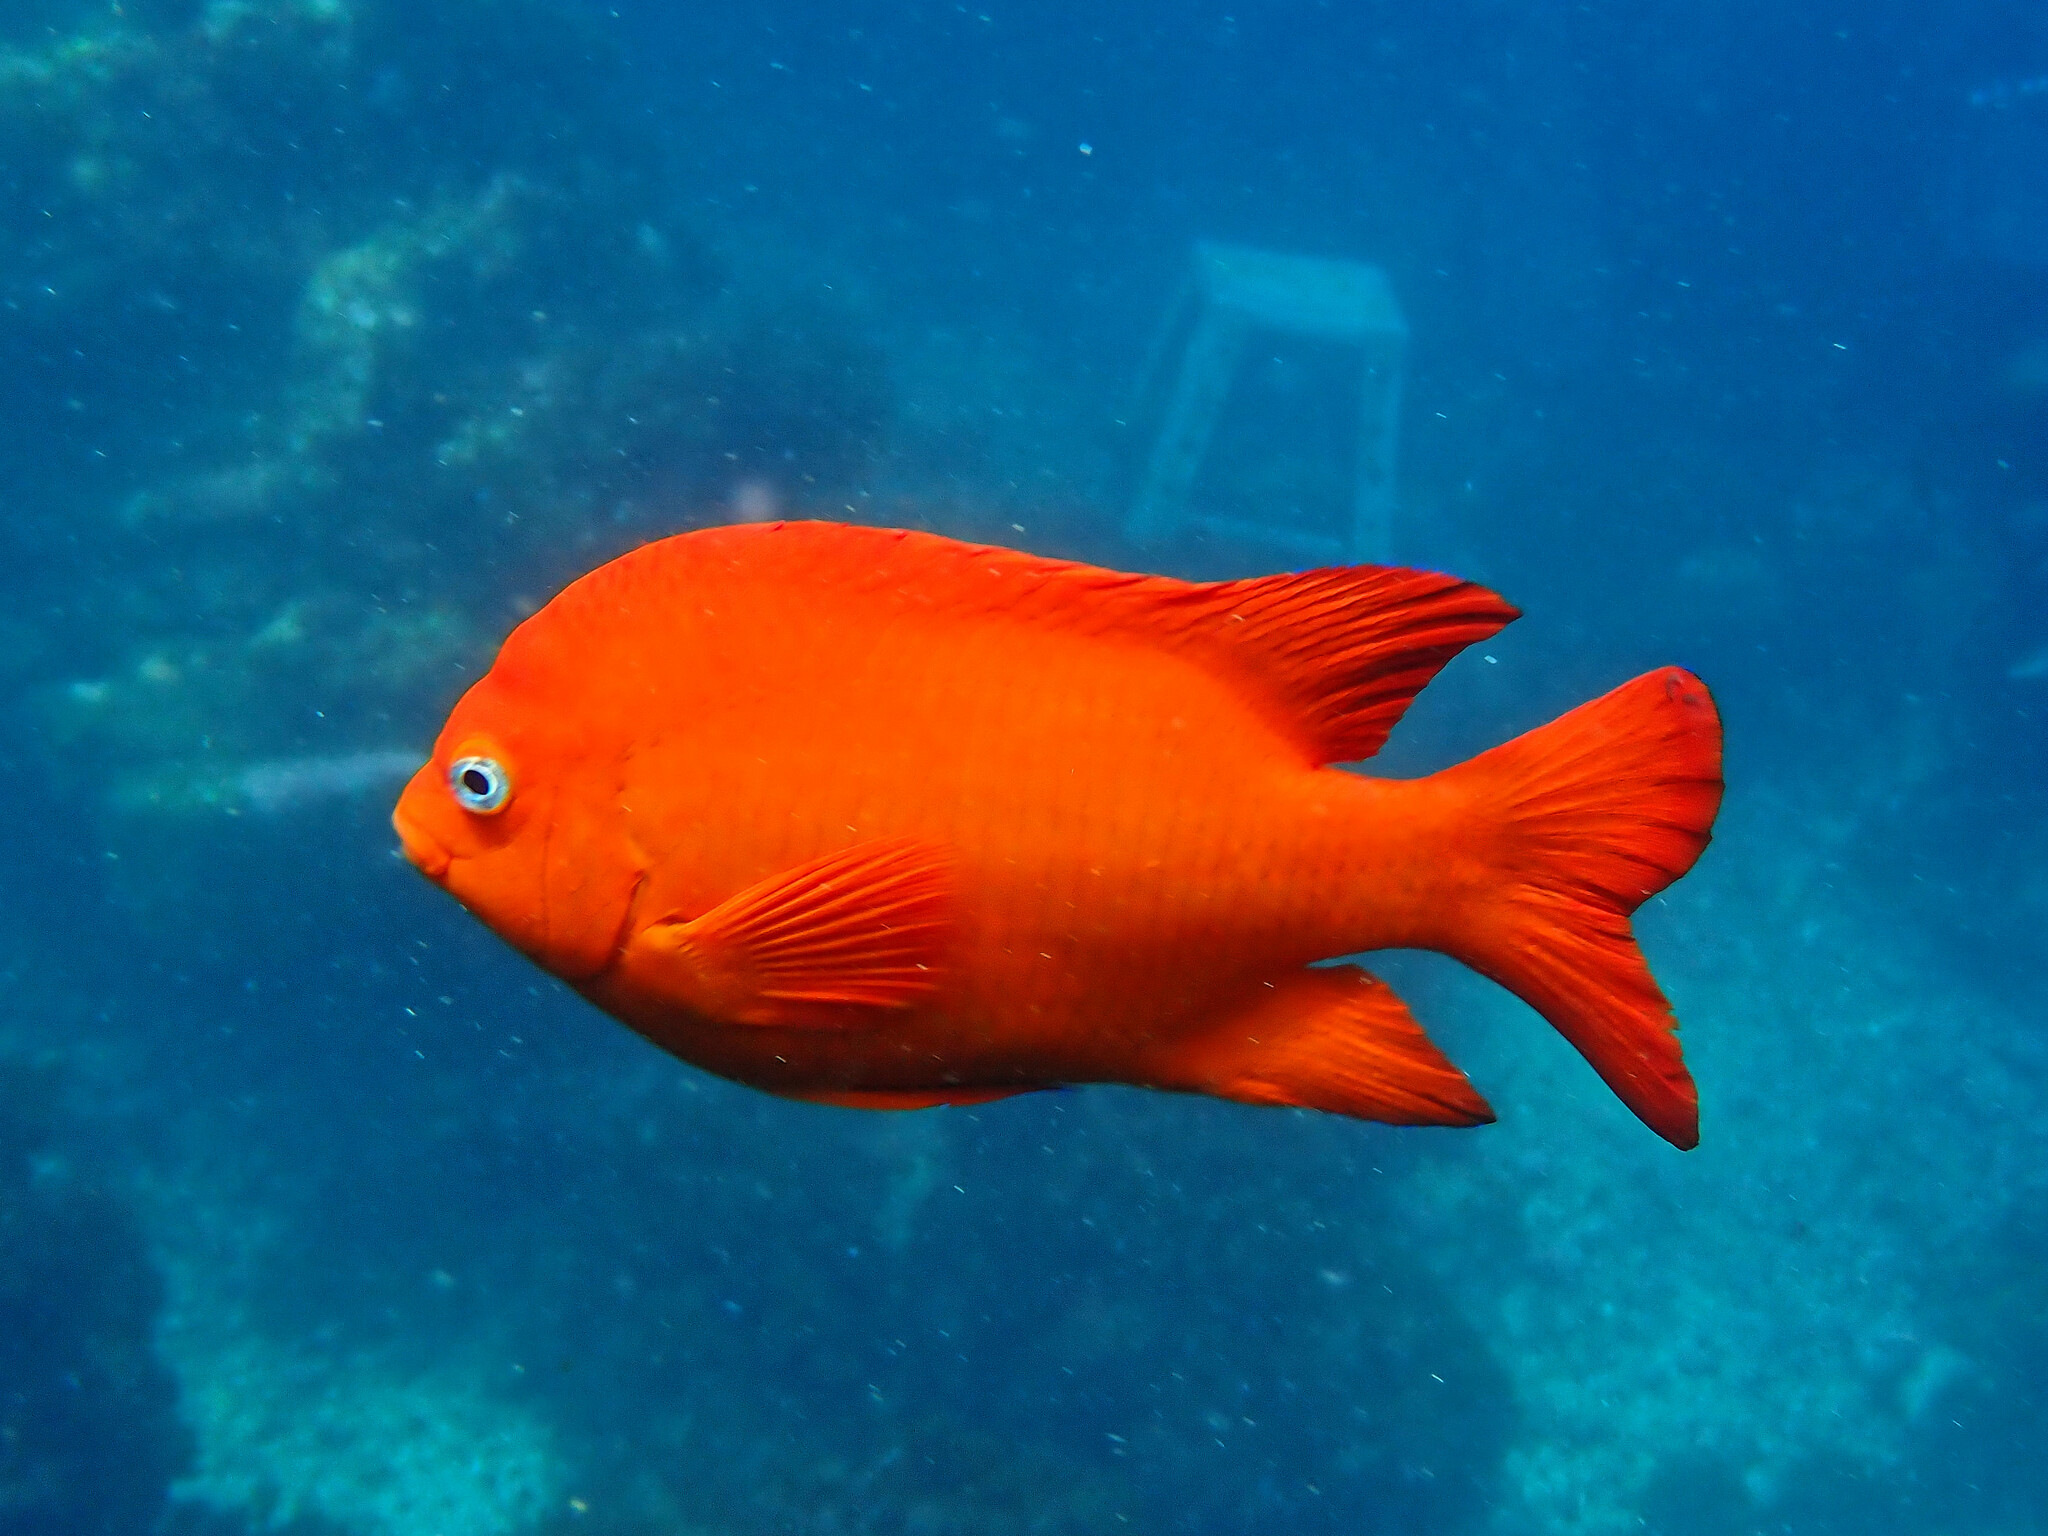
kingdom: Animalia
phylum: Chordata
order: Perciformes
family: Pomacentridae
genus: Hypsypops
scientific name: Hypsypops rubicundus
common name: Garibaldi
